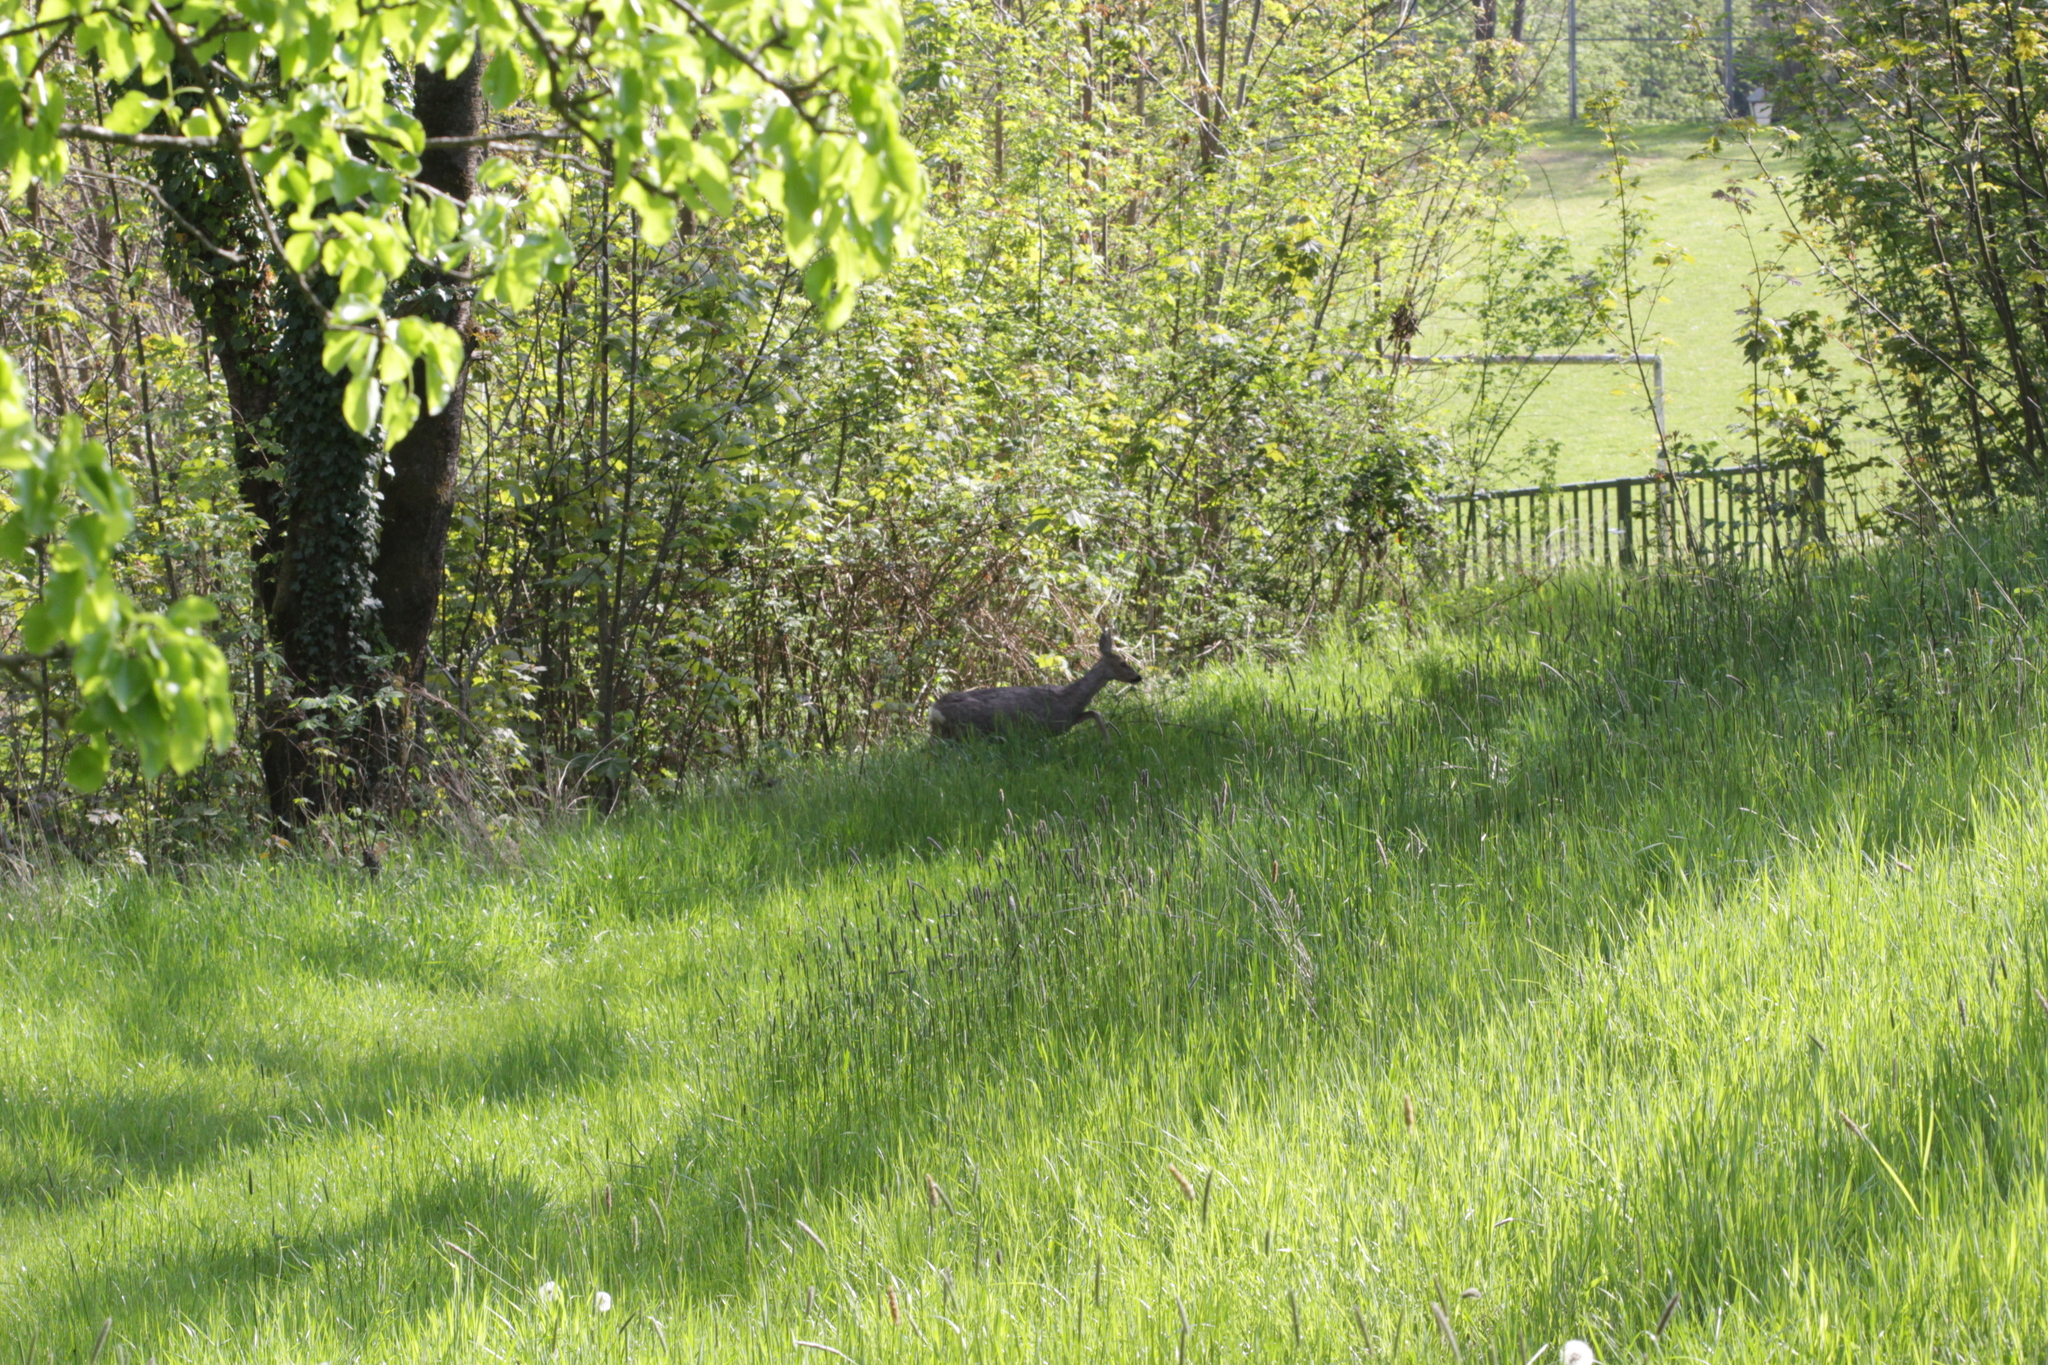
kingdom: Animalia
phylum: Chordata
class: Mammalia
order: Artiodactyla
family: Cervidae
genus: Capreolus
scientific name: Capreolus capreolus
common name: Western roe deer
